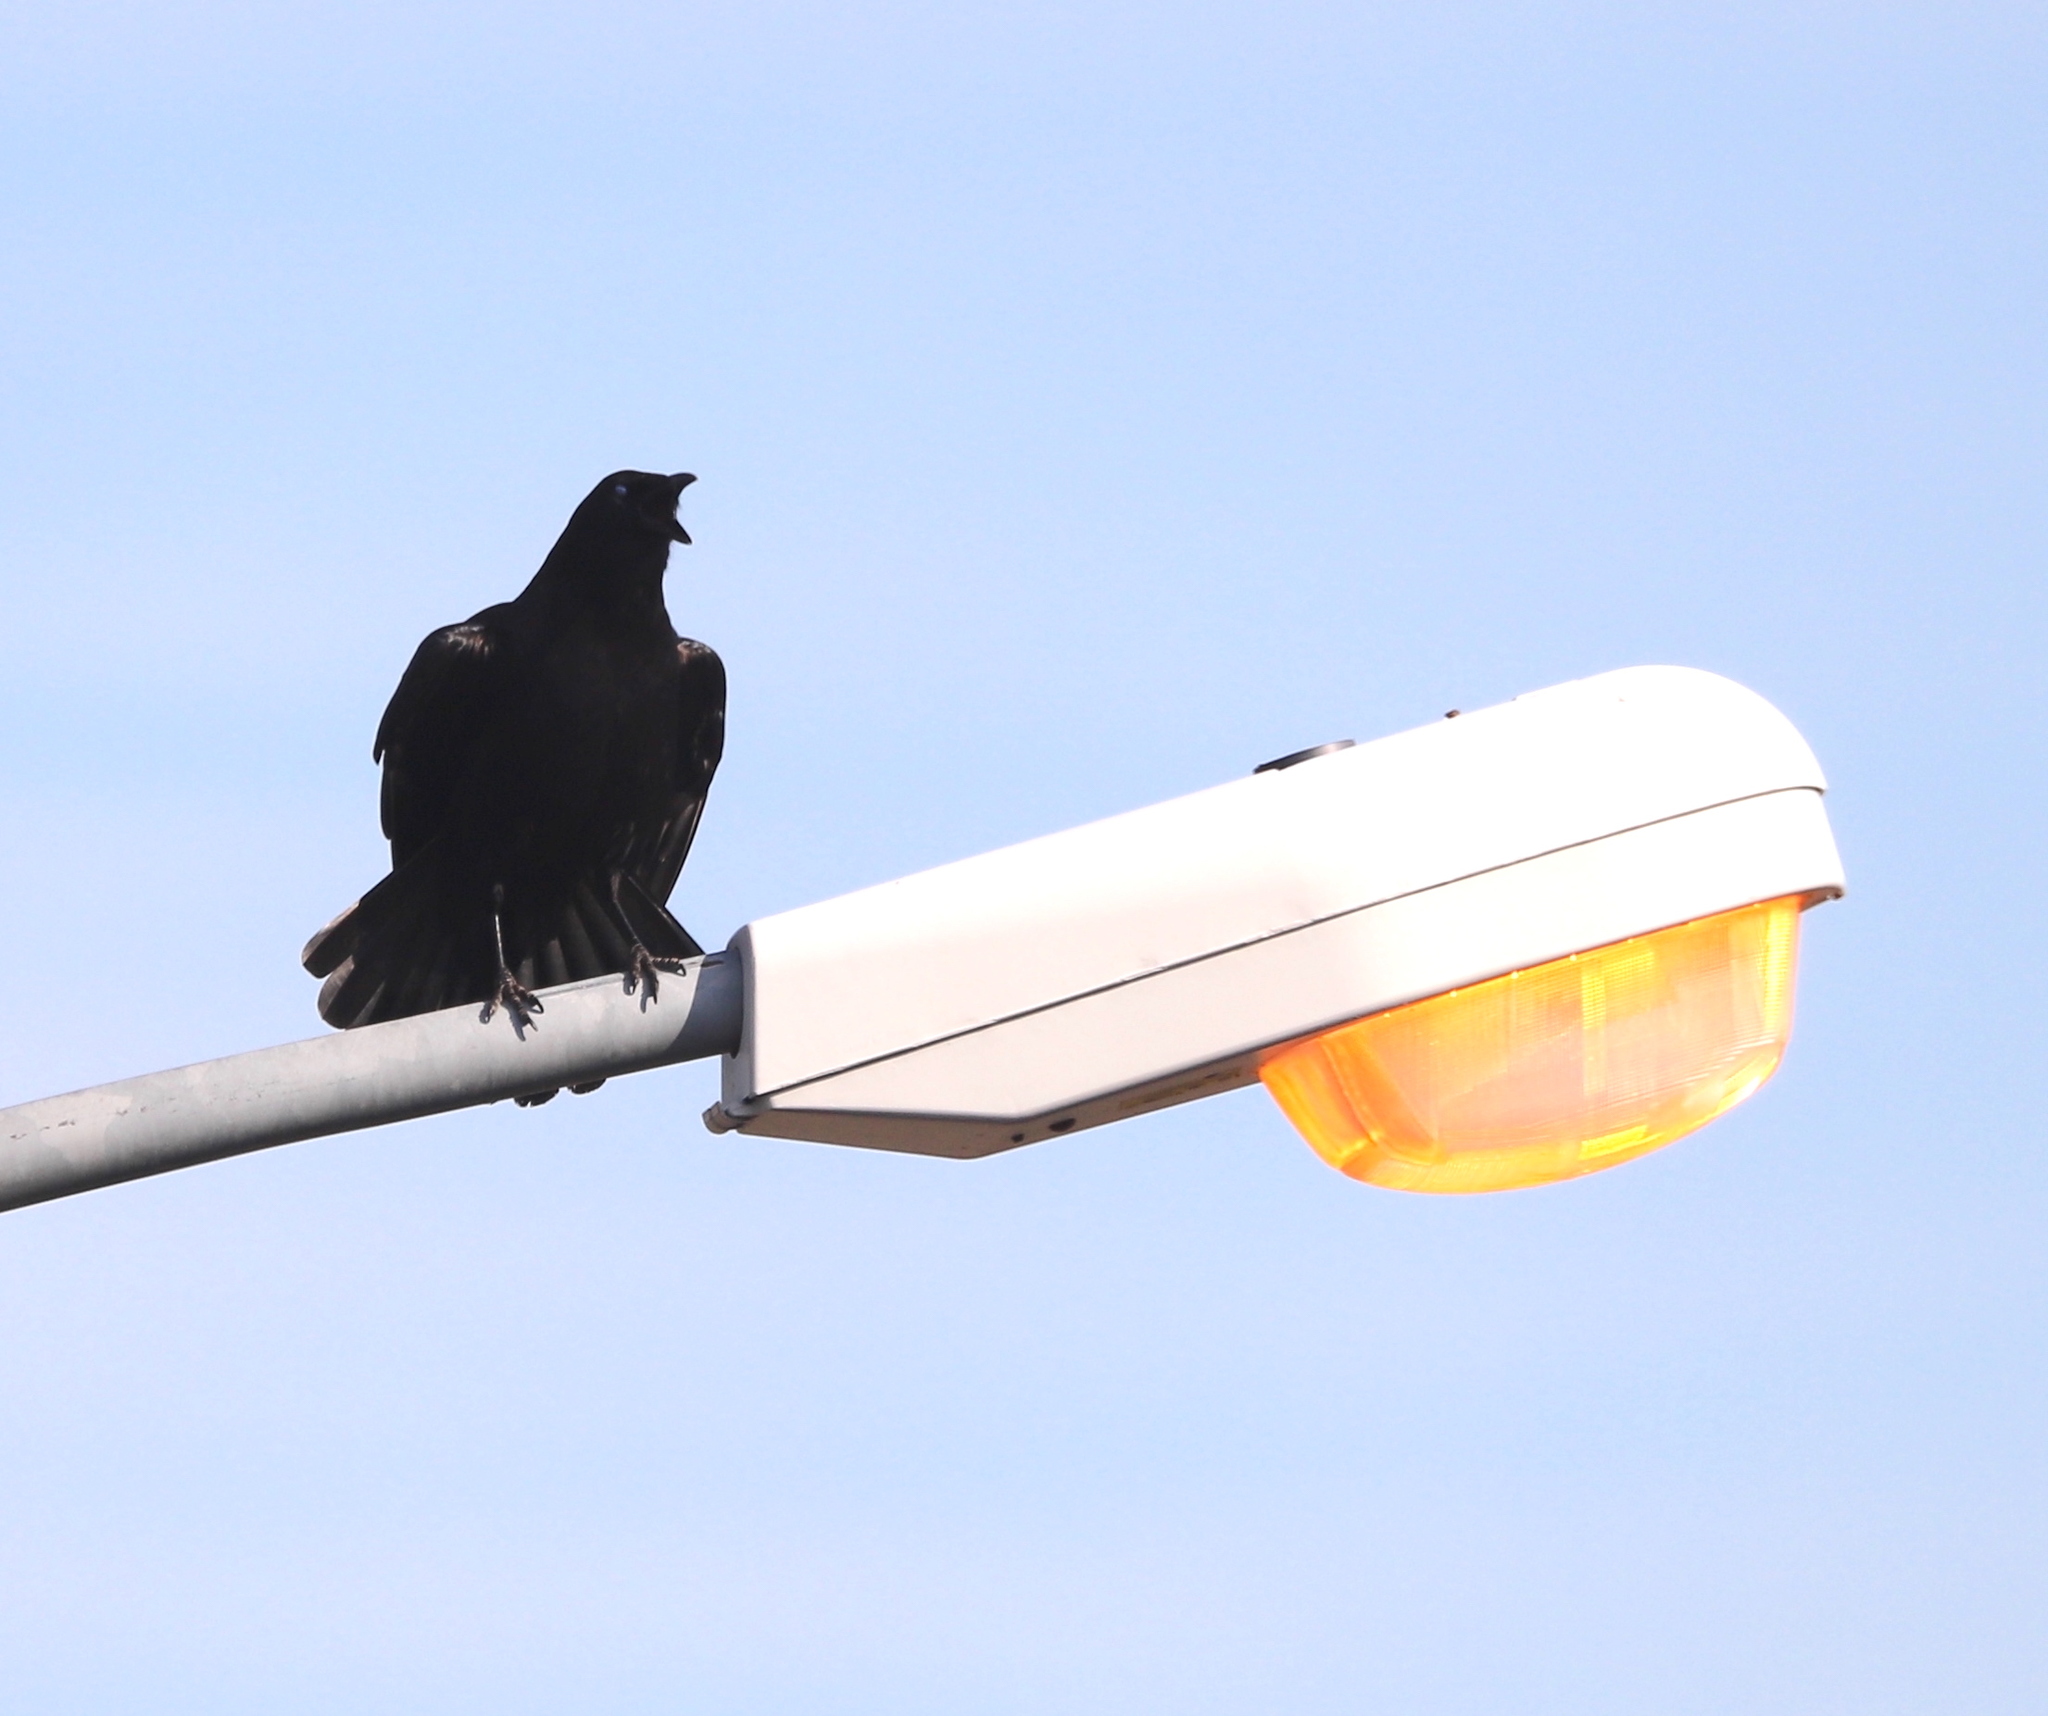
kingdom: Animalia
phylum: Chordata
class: Aves
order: Passeriformes
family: Corvidae
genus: Corvus
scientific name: Corvus
